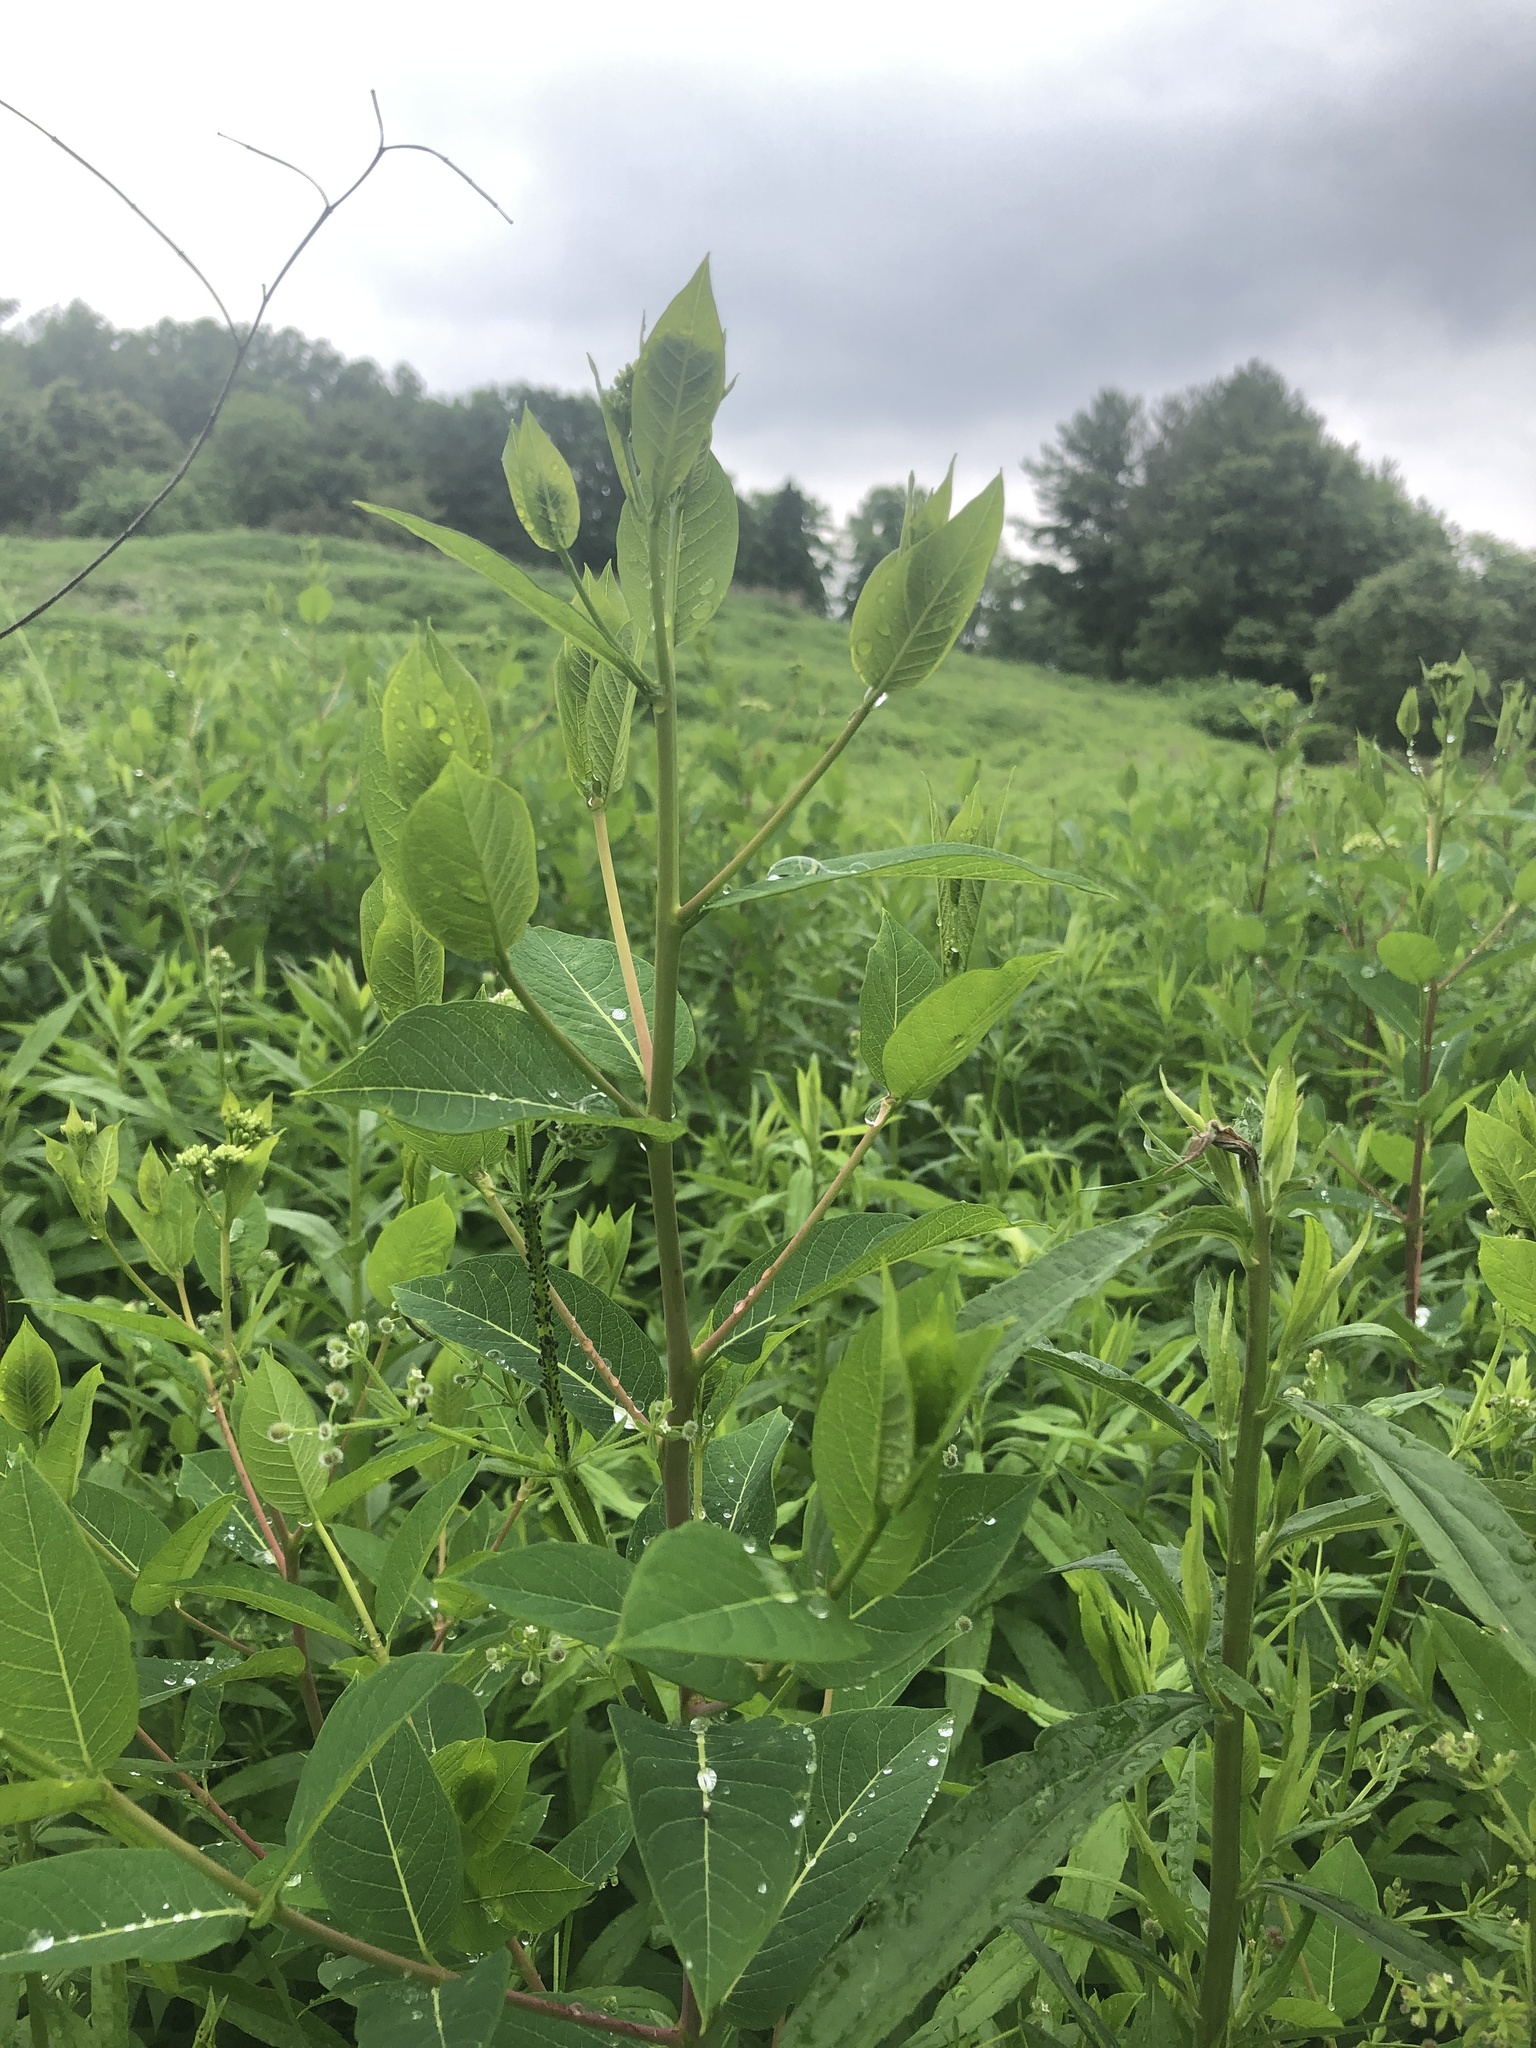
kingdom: Plantae
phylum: Tracheophyta
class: Magnoliopsida
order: Gentianales
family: Apocynaceae
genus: Apocynum
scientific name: Apocynum cannabinum
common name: Hemp dogbane
